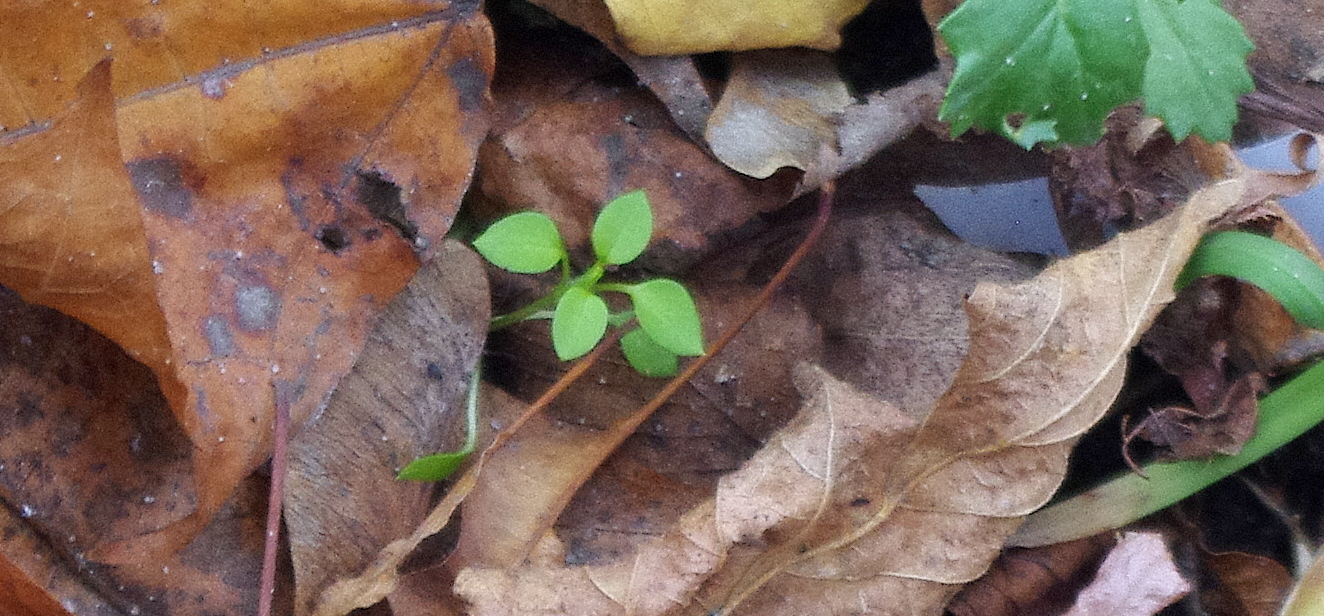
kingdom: Plantae
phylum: Tracheophyta
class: Magnoliopsida
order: Caryophyllales
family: Caryophyllaceae
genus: Stellaria
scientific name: Stellaria media
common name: Common chickweed
